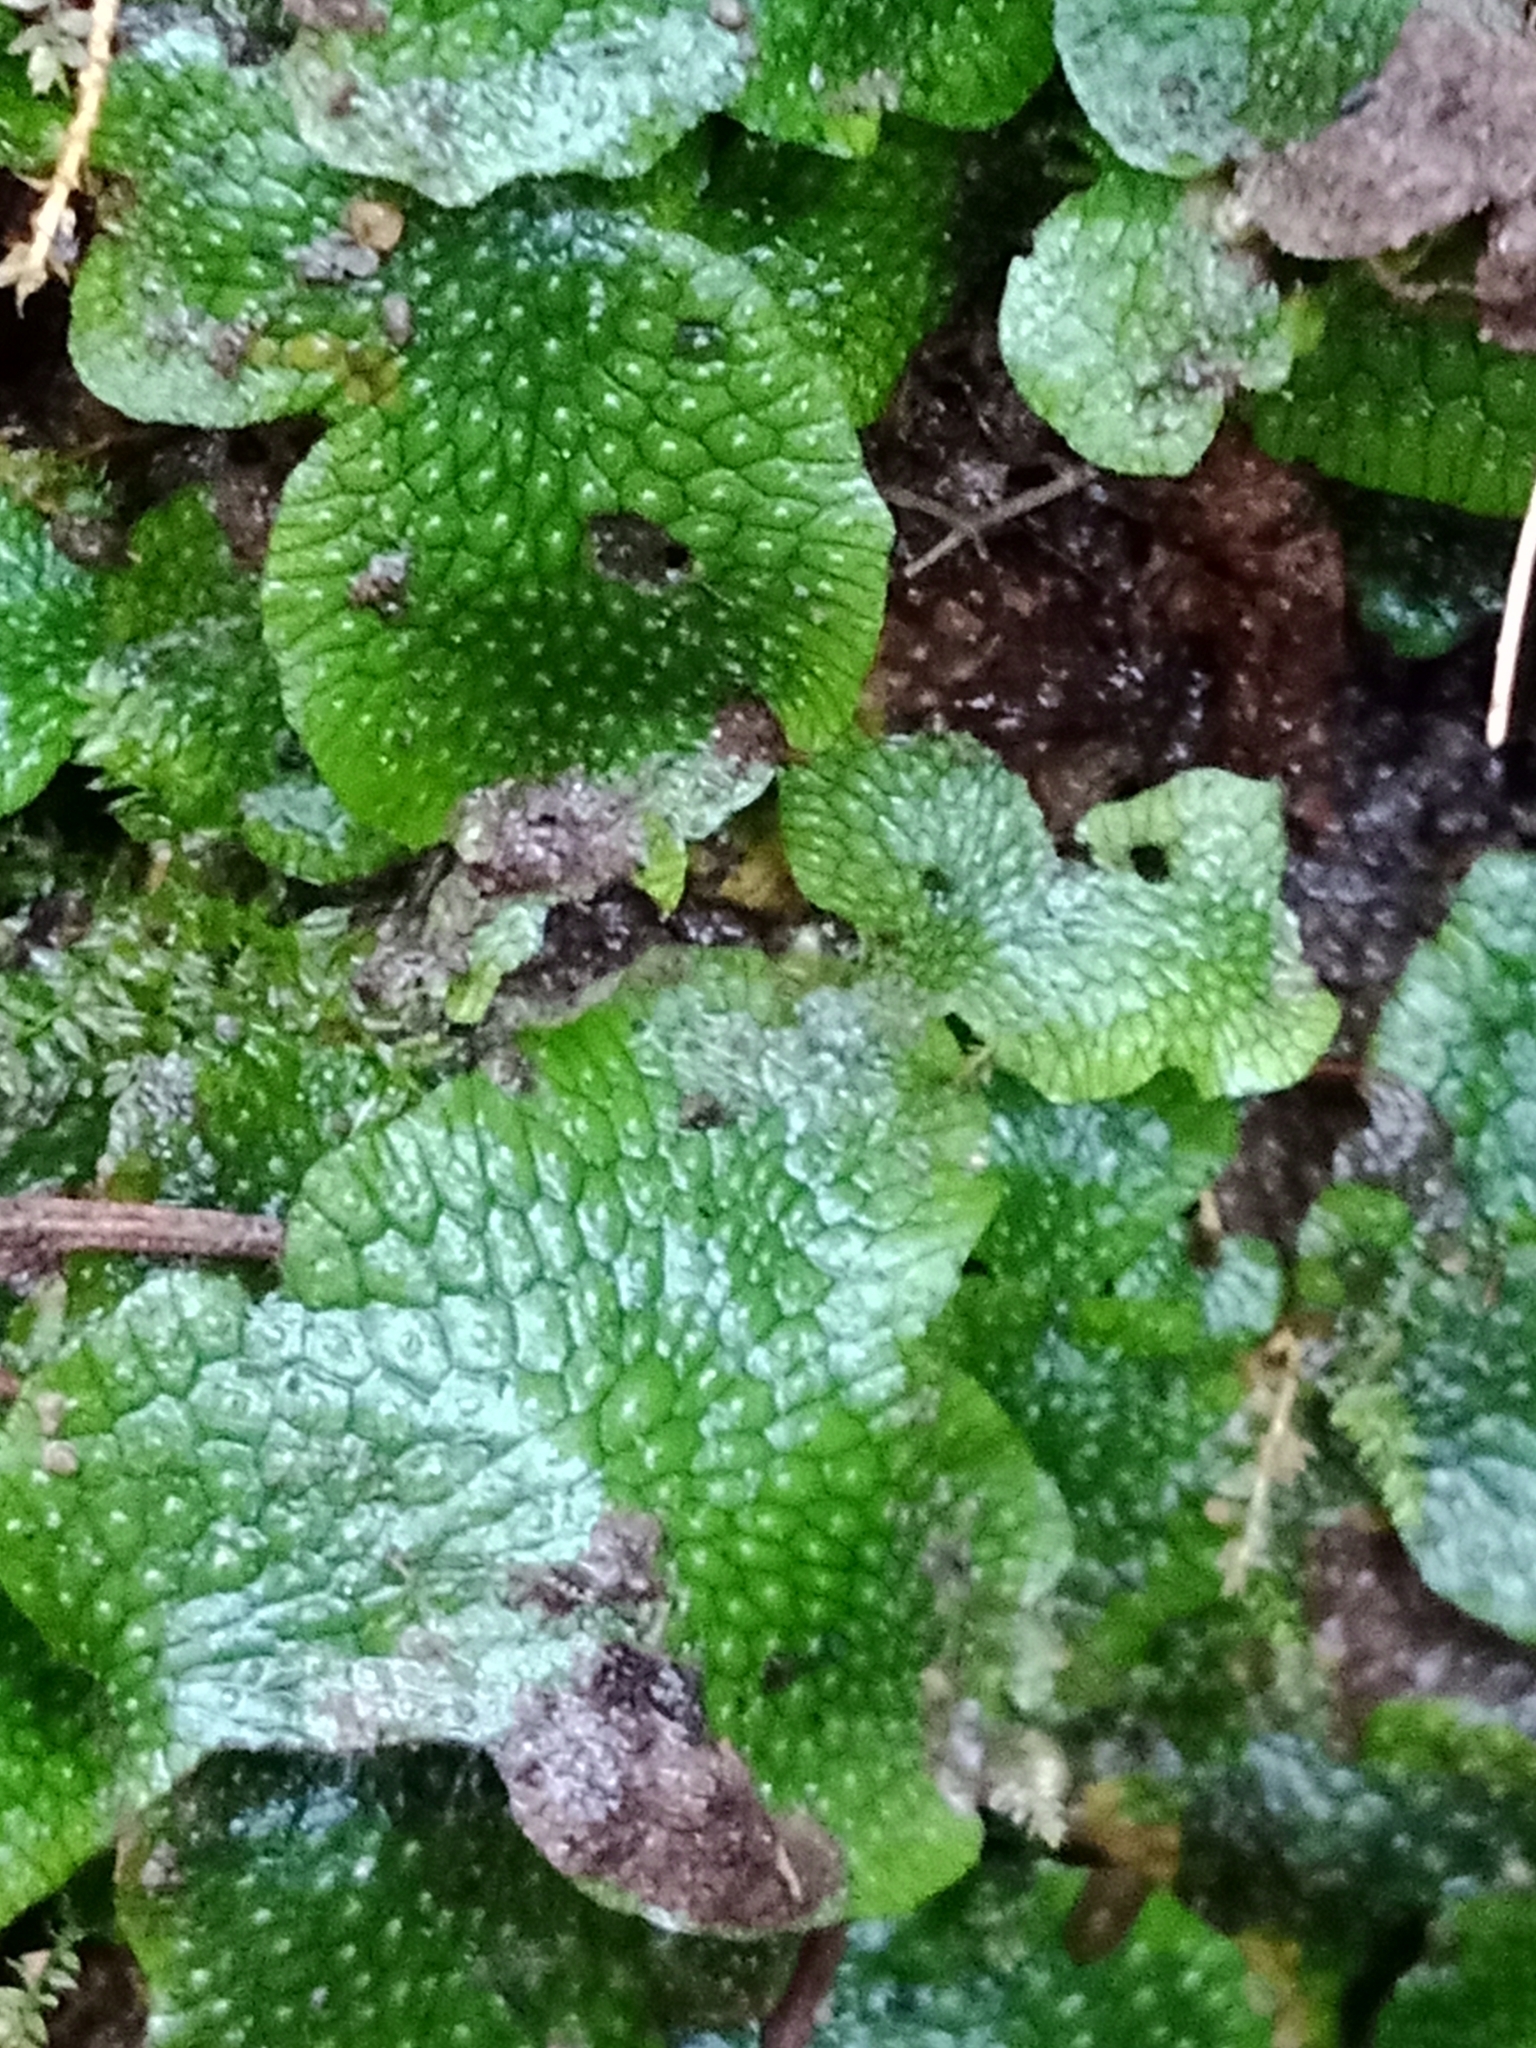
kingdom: Plantae
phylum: Marchantiophyta
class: Marchantiopsida
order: Marchantiales
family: Conocephalaceae
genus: Conocephalum
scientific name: Conocephalum salebrosum
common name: Cat-tongue liverwort
